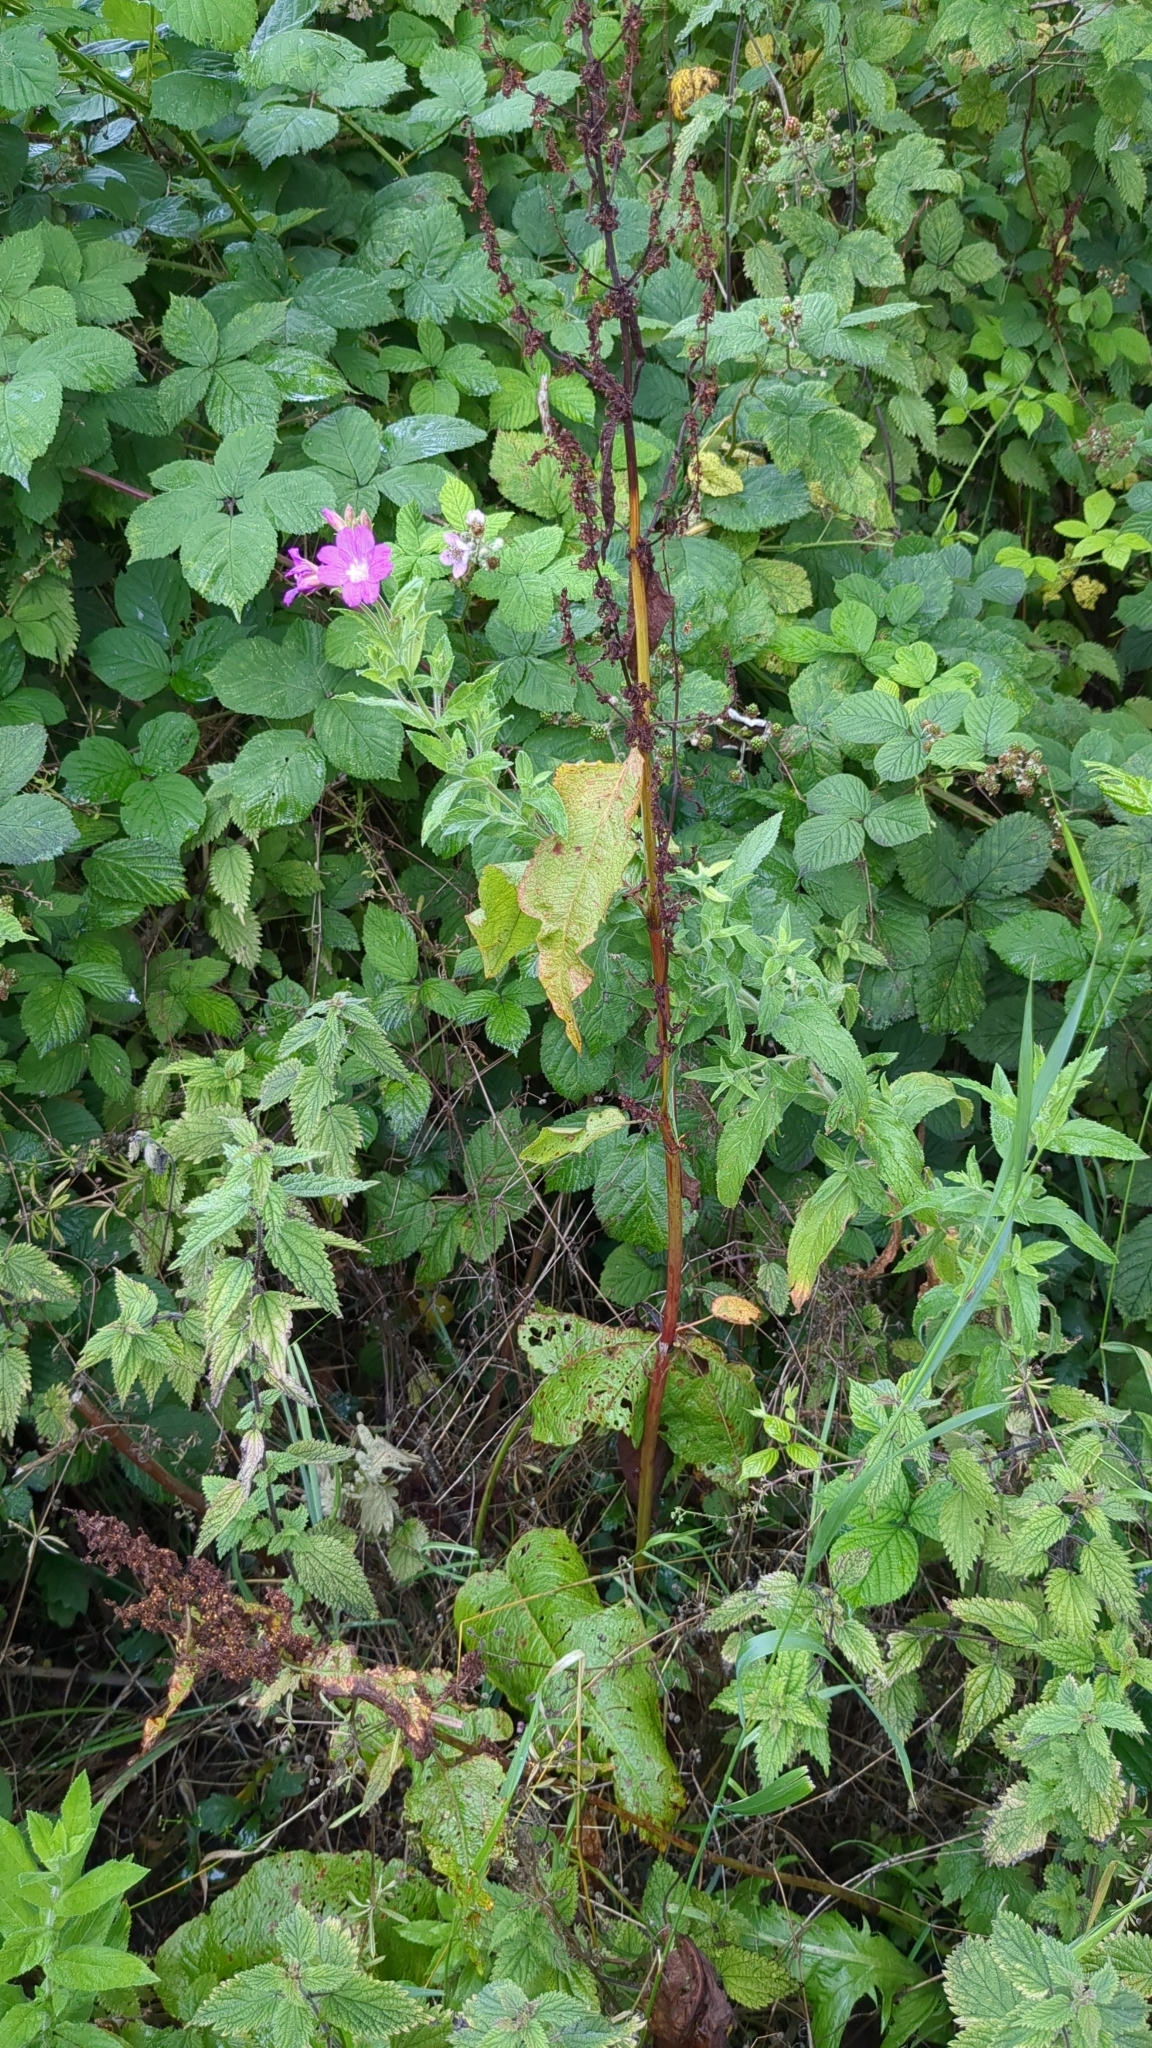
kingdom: Plantae
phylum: Tracheophyta
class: Magnoliopsida
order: Myrtales
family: Onagraceae
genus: Epilobium
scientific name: Epilobium hirsutum
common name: Great willowherb
